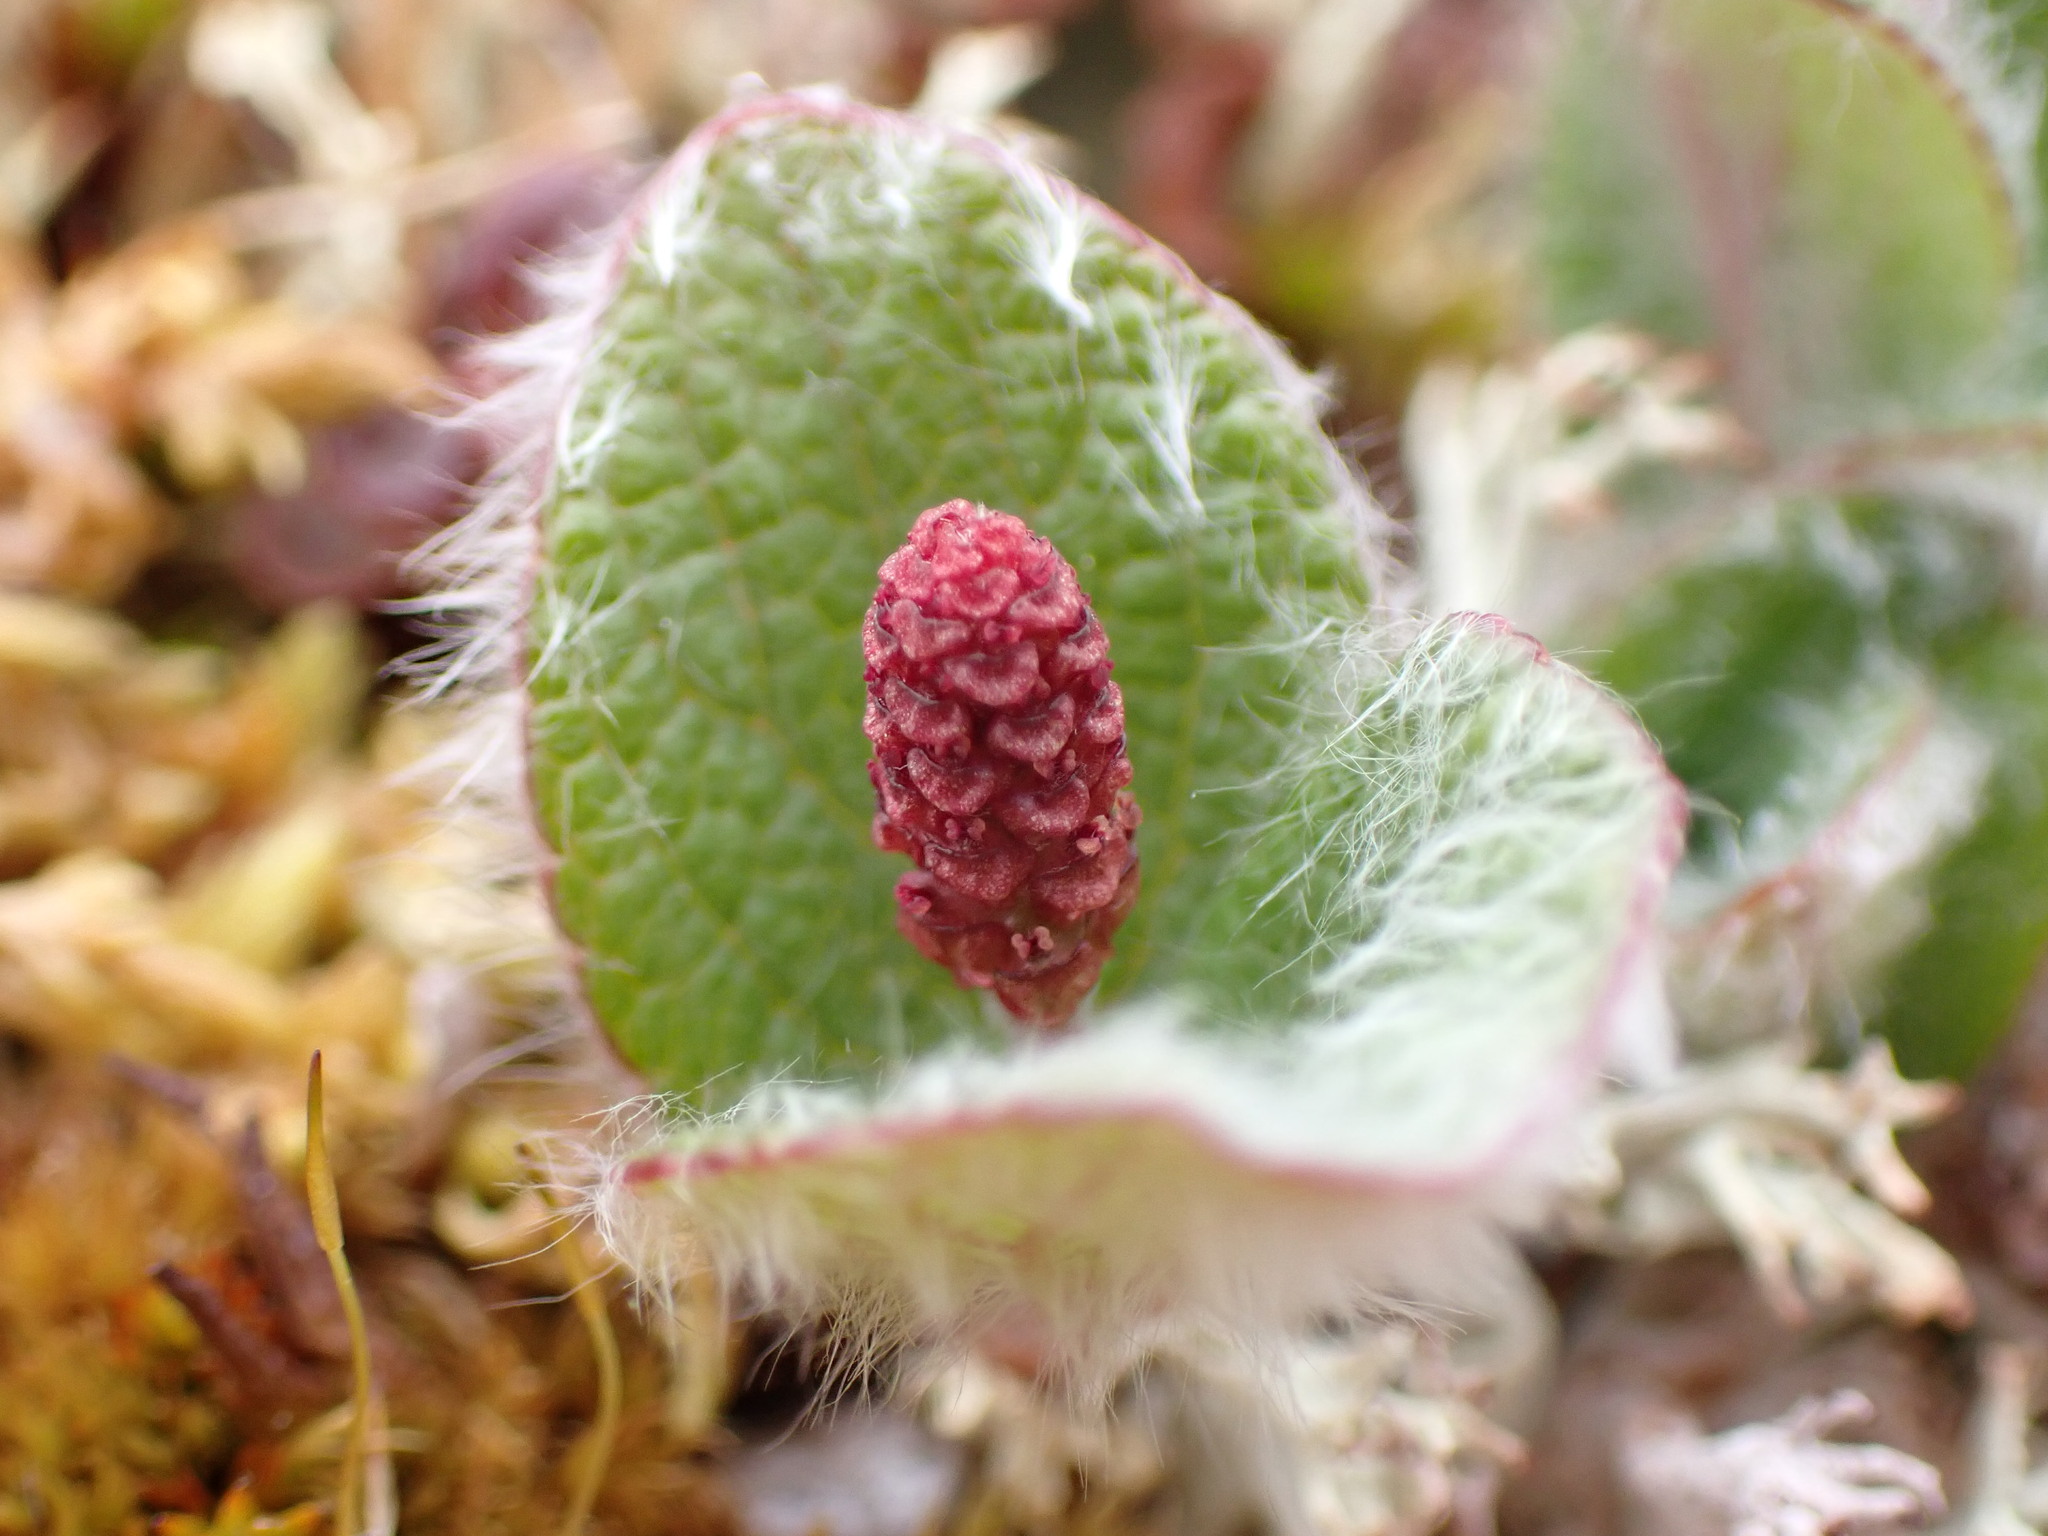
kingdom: Plantae
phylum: Tracheophyta
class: Magnoliopsida
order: Malpighiales
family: Salicaceae
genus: Salix
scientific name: Salix reticulata
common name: Net-leaved willow
